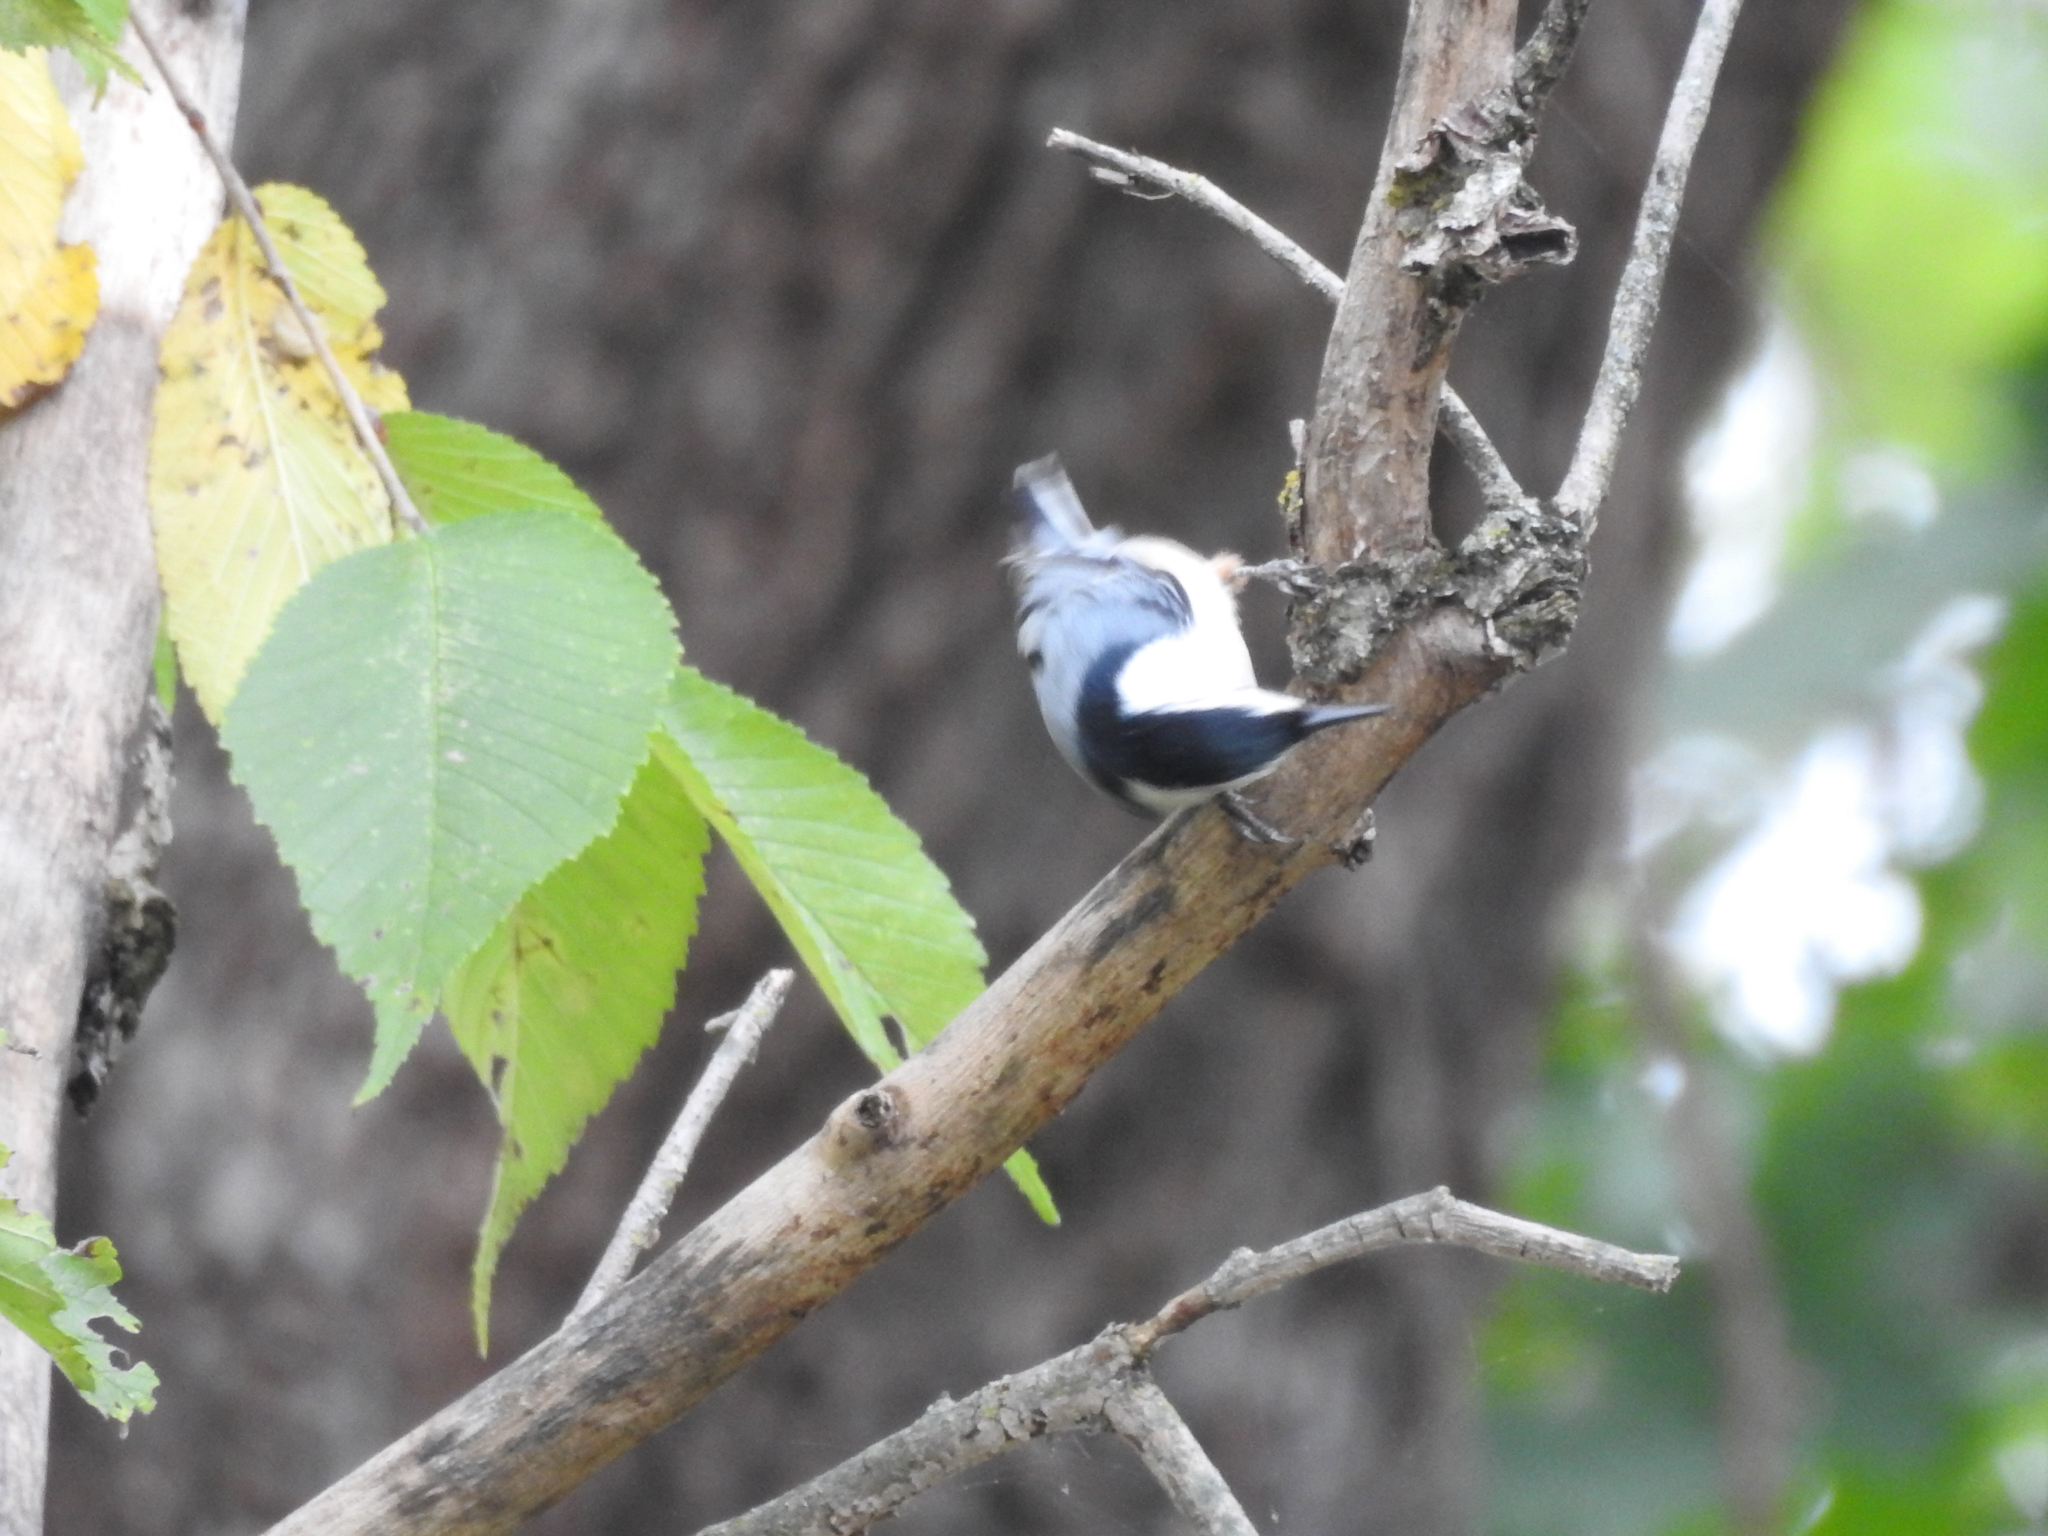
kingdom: Animalia
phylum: Chordata
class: Aves
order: Passeriformes
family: Sittidae
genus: Sitta
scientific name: Sitta carolinensis
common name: White-breasted nuthatch
